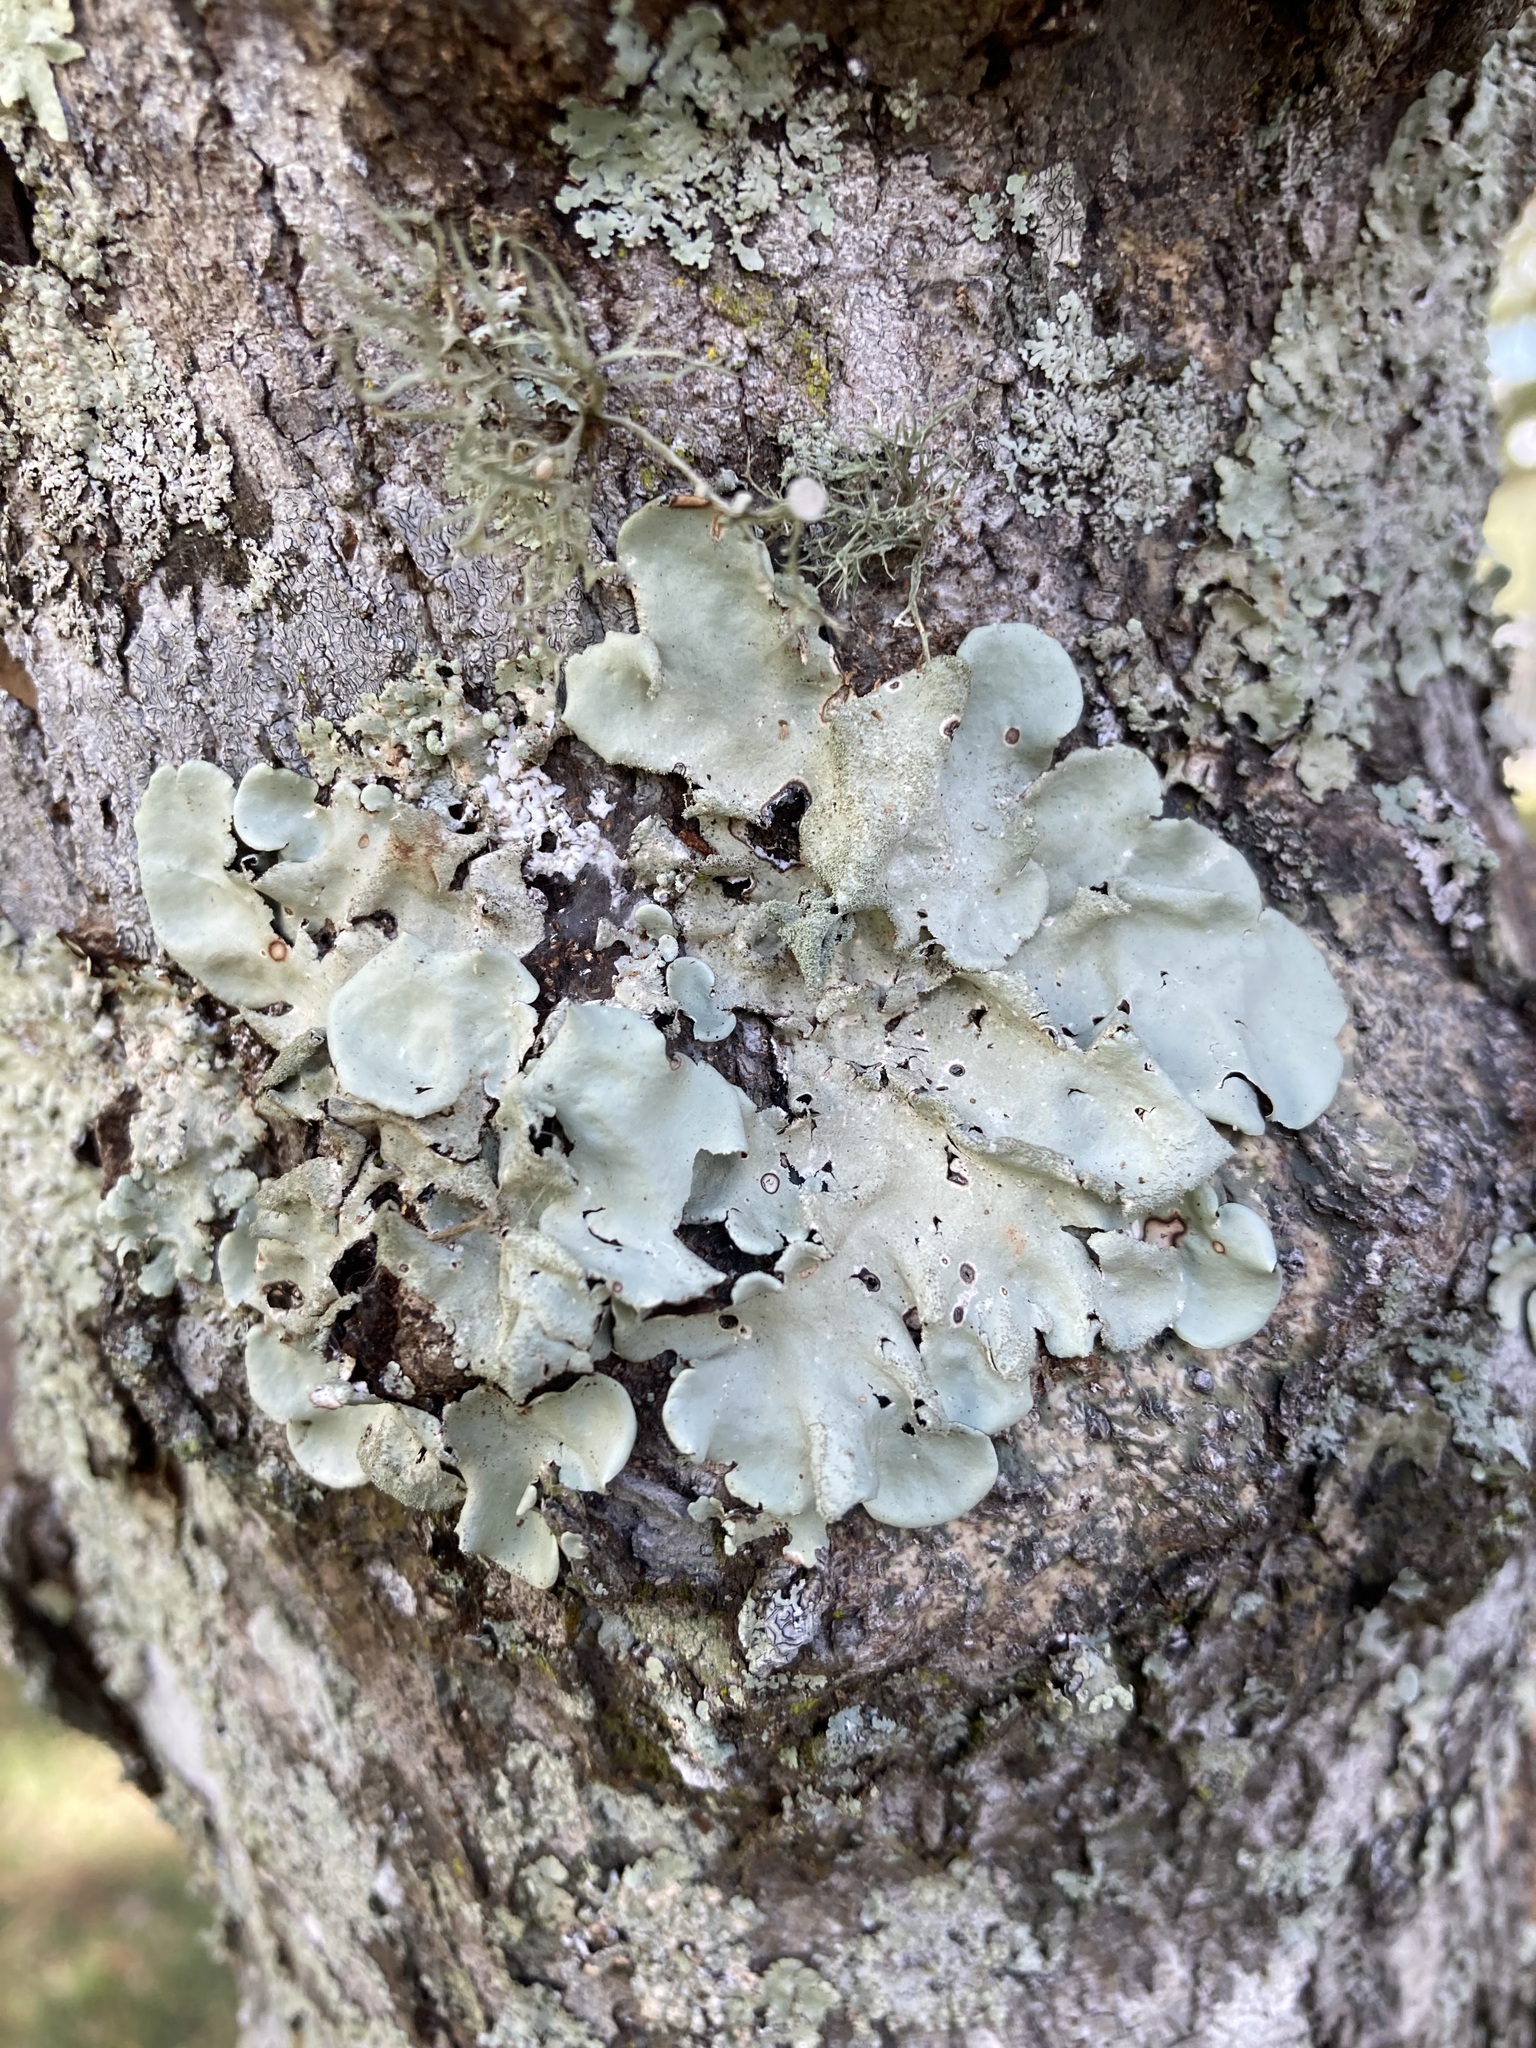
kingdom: Fungi
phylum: Ascomycota
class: Lecanoromycetes
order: Lecanorales
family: Parmeliaceae
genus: Parmotrema
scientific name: Parmotrema tinctorum
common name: Old gray ruffles
